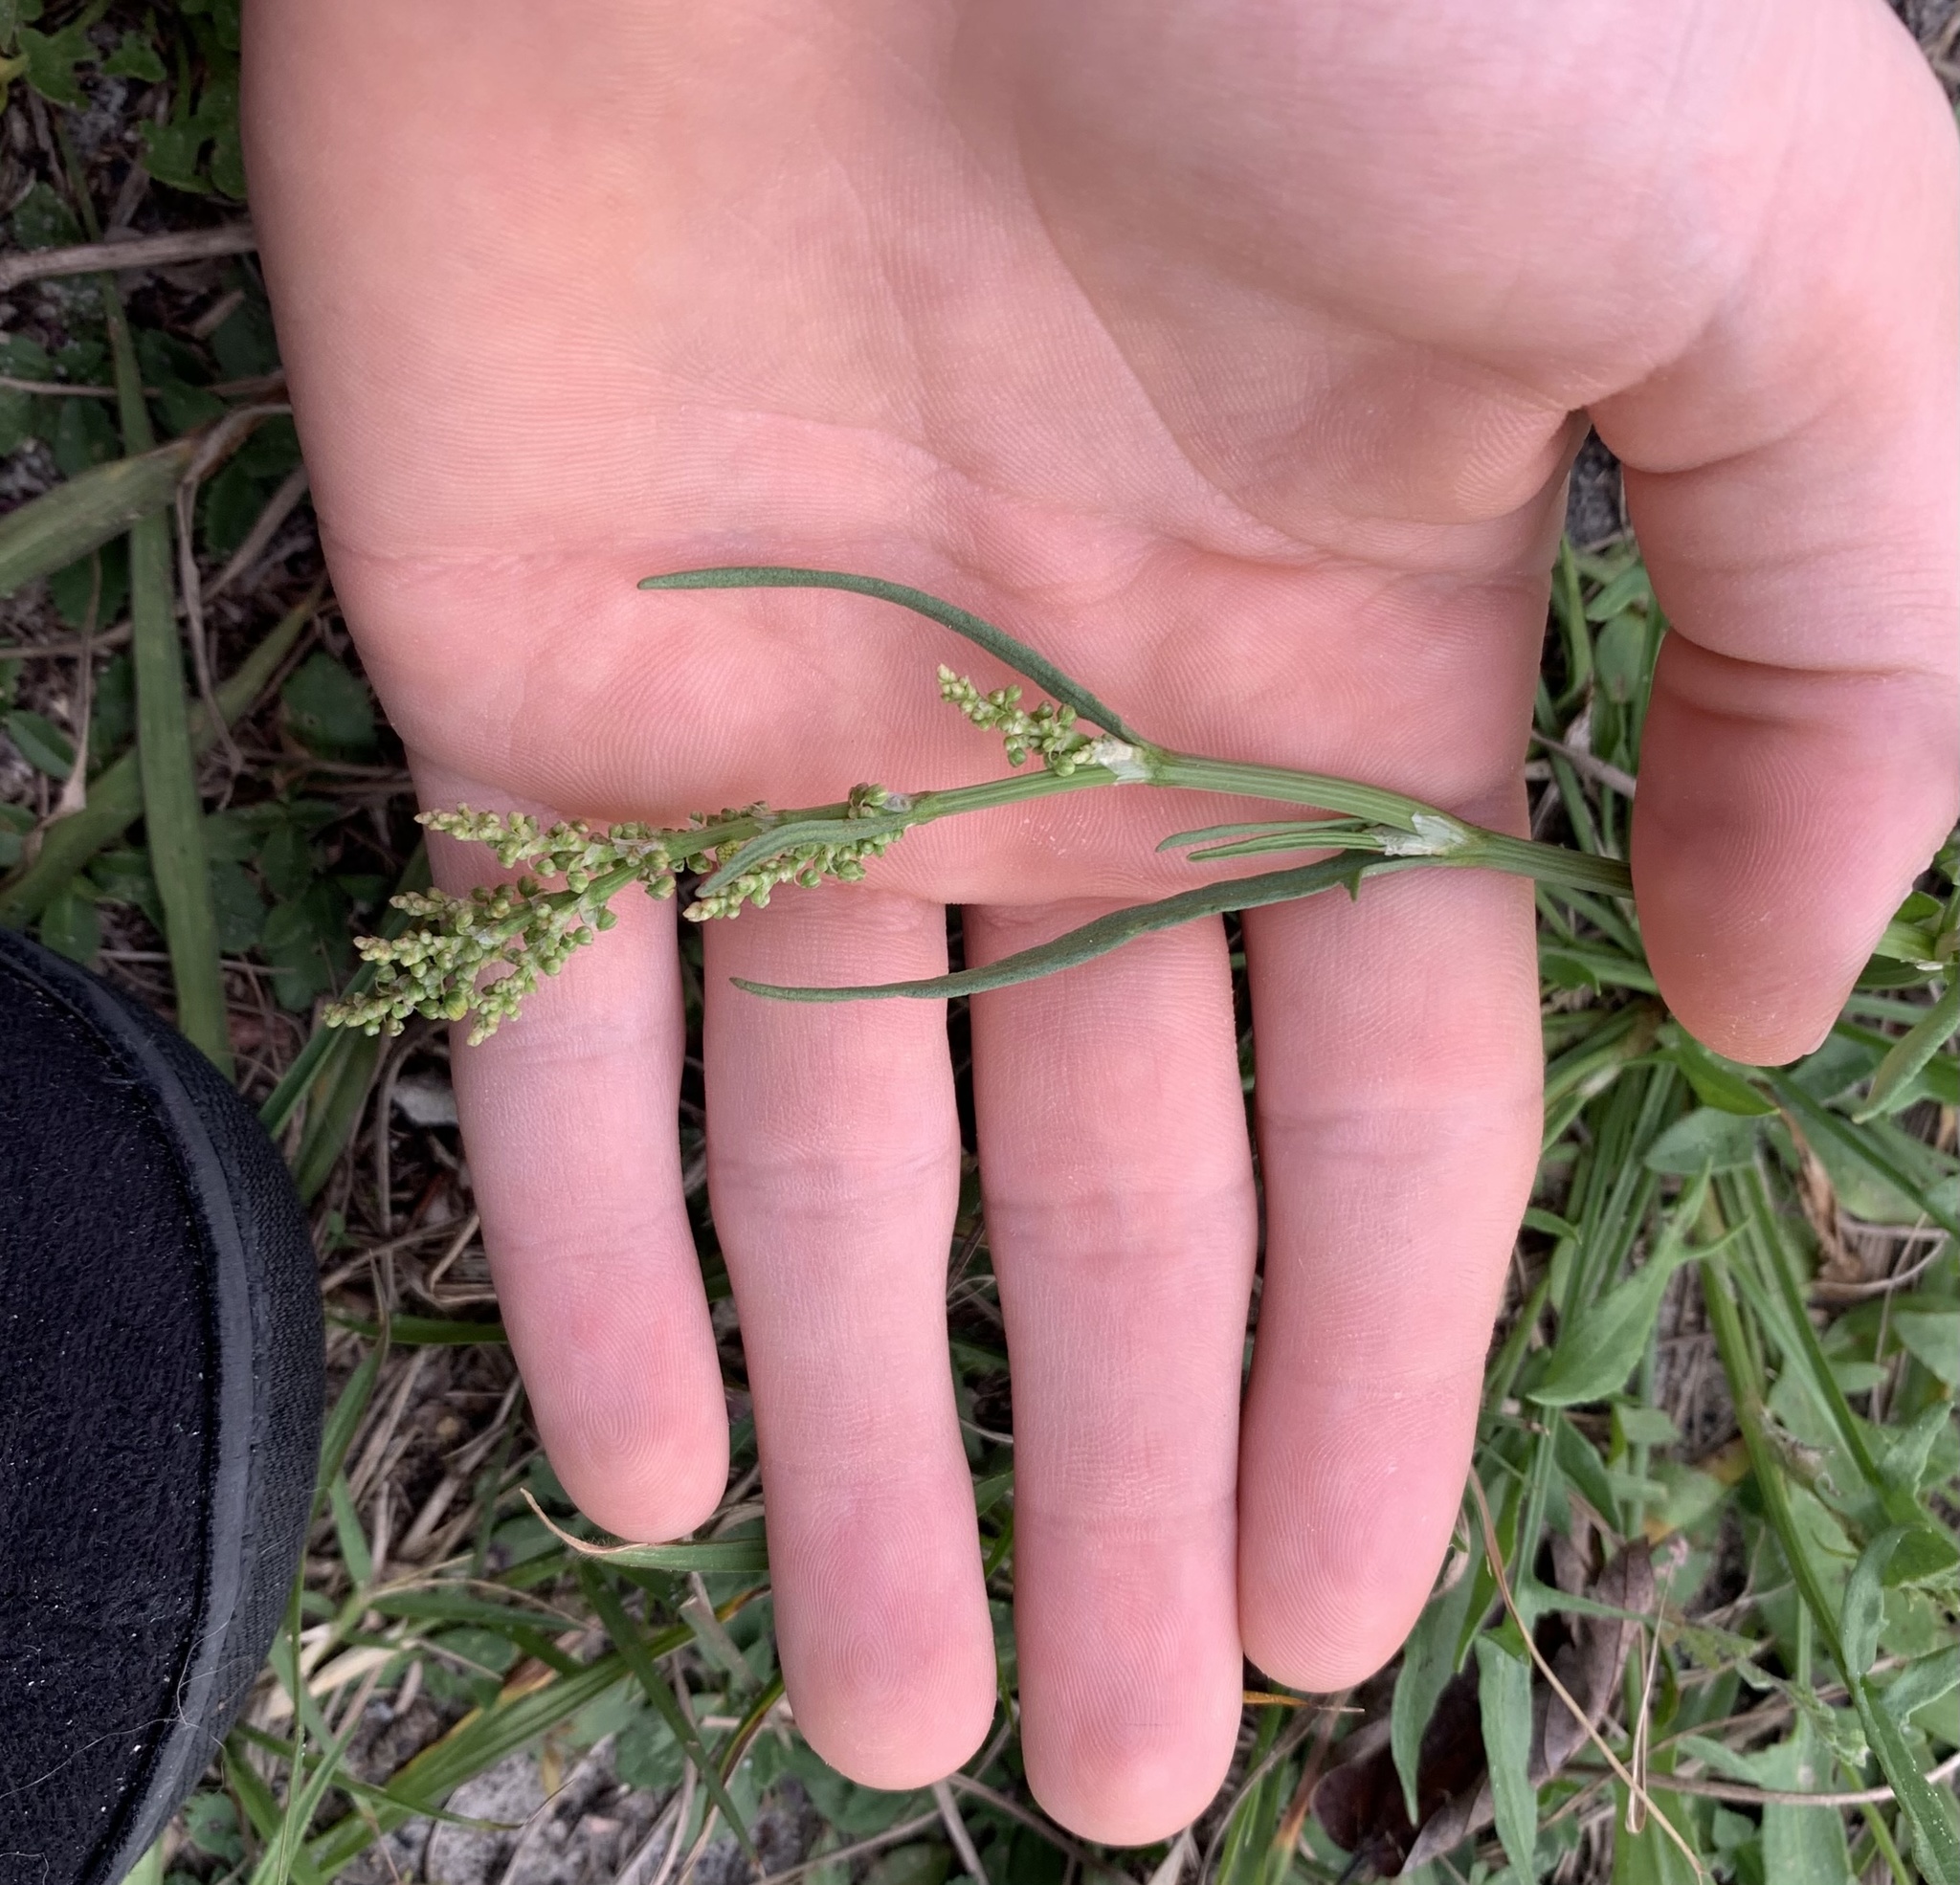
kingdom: Plantae
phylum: Tracheophyta
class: Magnoliopsida
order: Caryophyllales
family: Polygonaceae
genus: Rumex
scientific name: Rumex hastatulus
